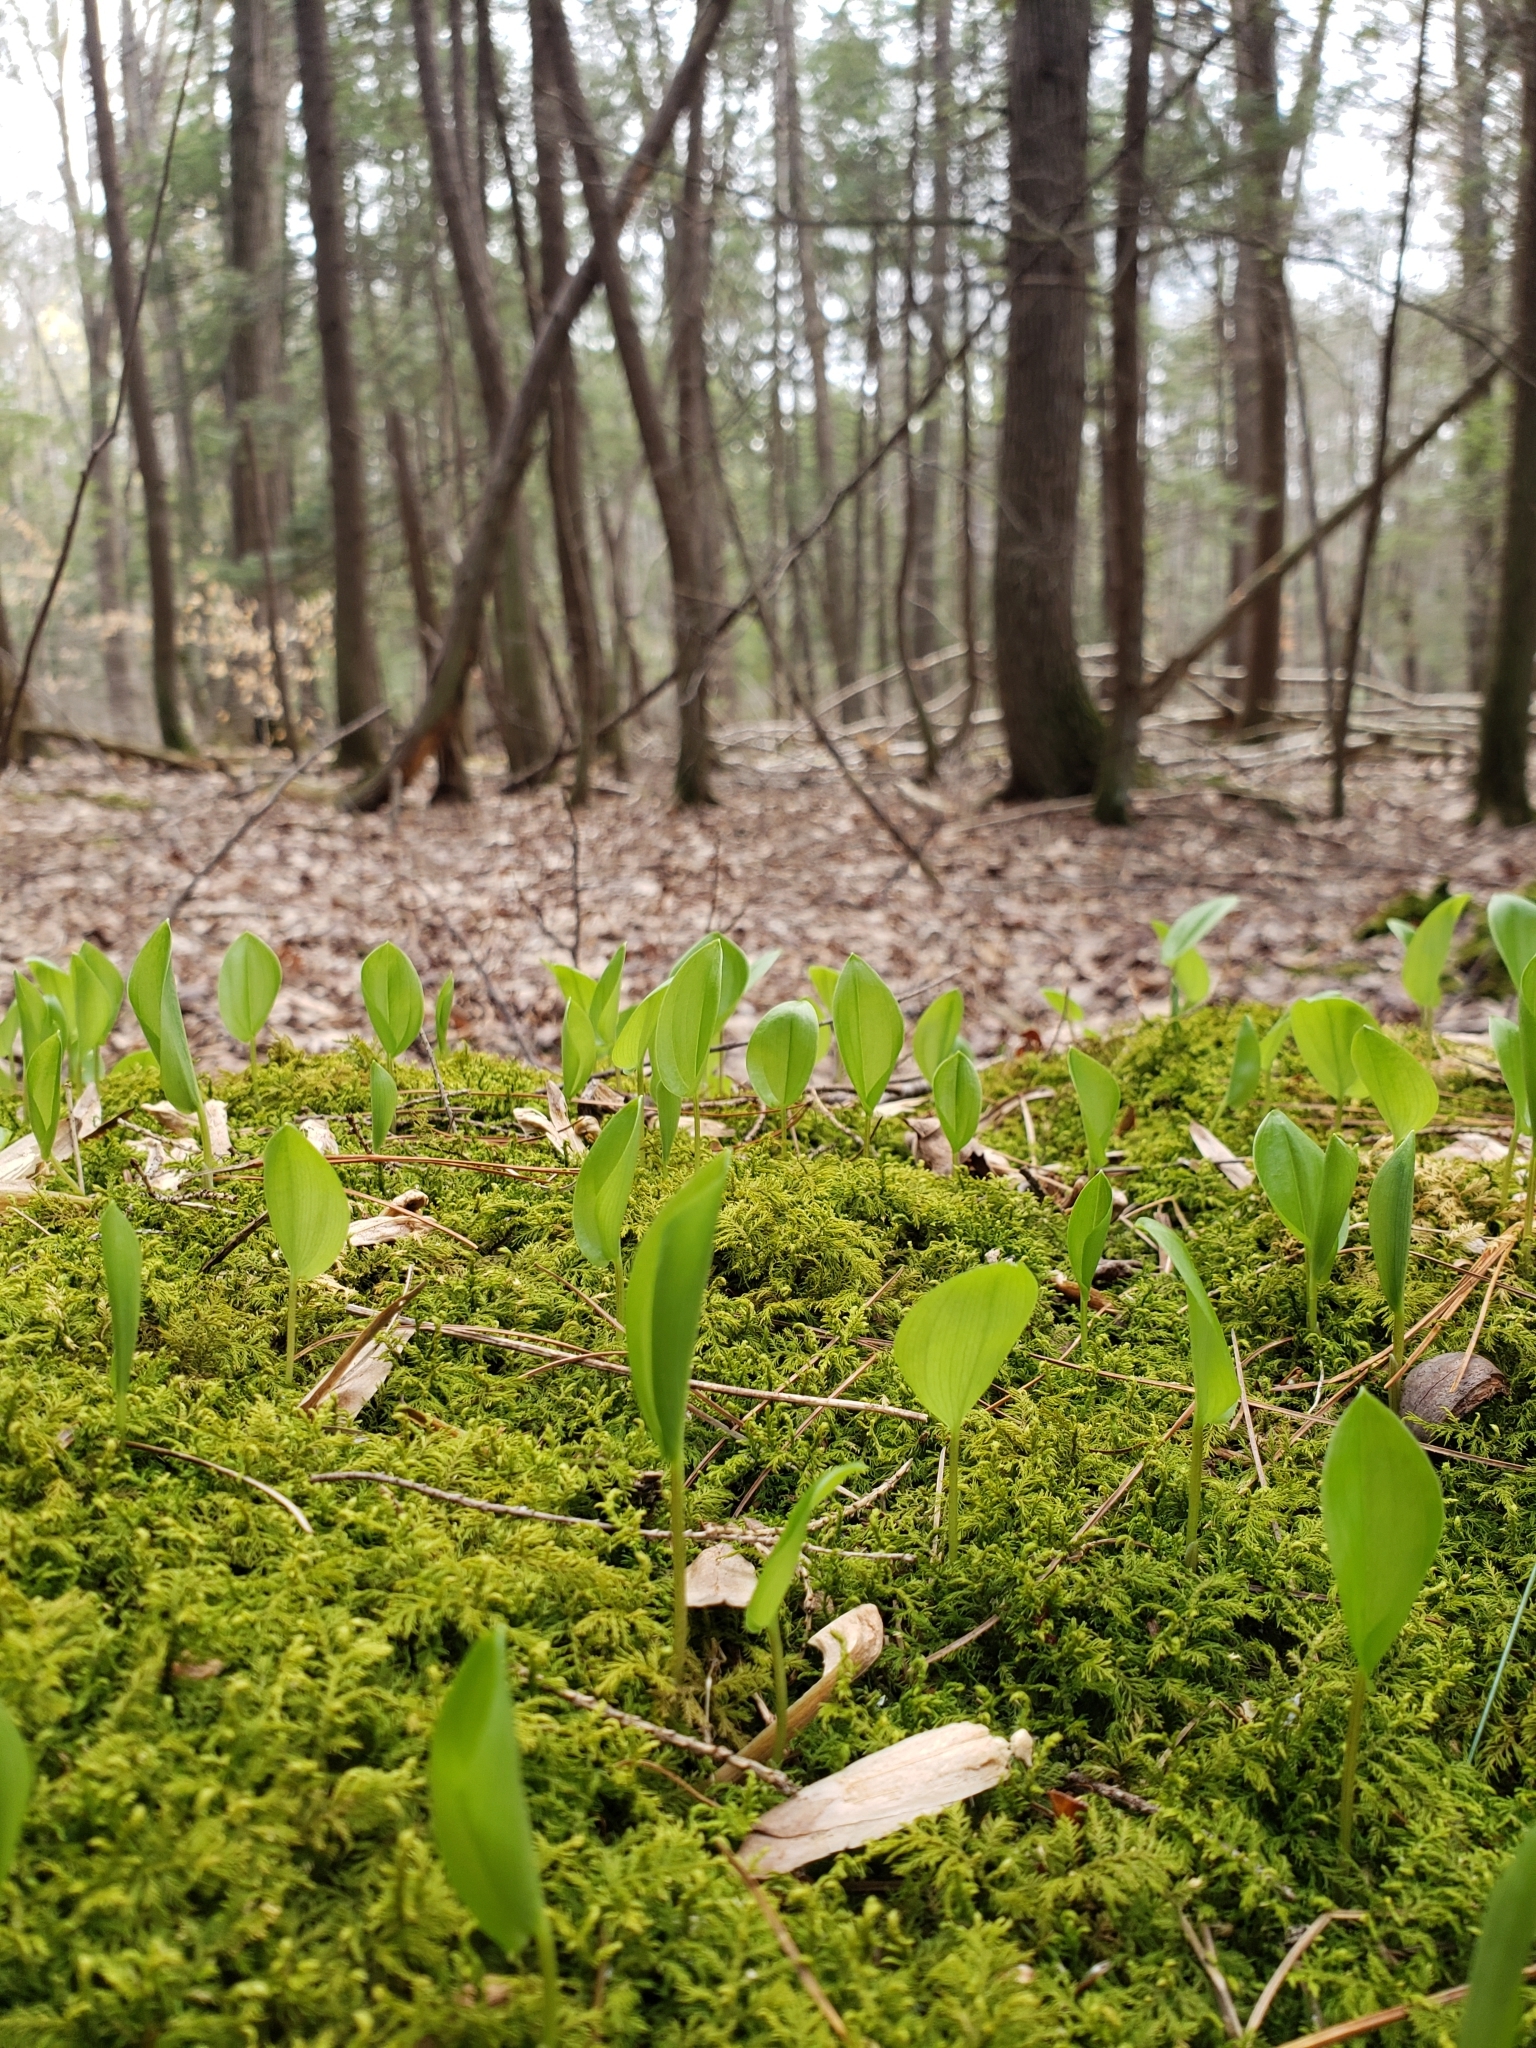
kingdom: Plantae
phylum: Tracheophyta
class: Liliopsida
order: Asparagales
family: Asparagaceae
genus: Maianthemum
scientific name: Maianthemum canadense
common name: False lily-of-the-valley
